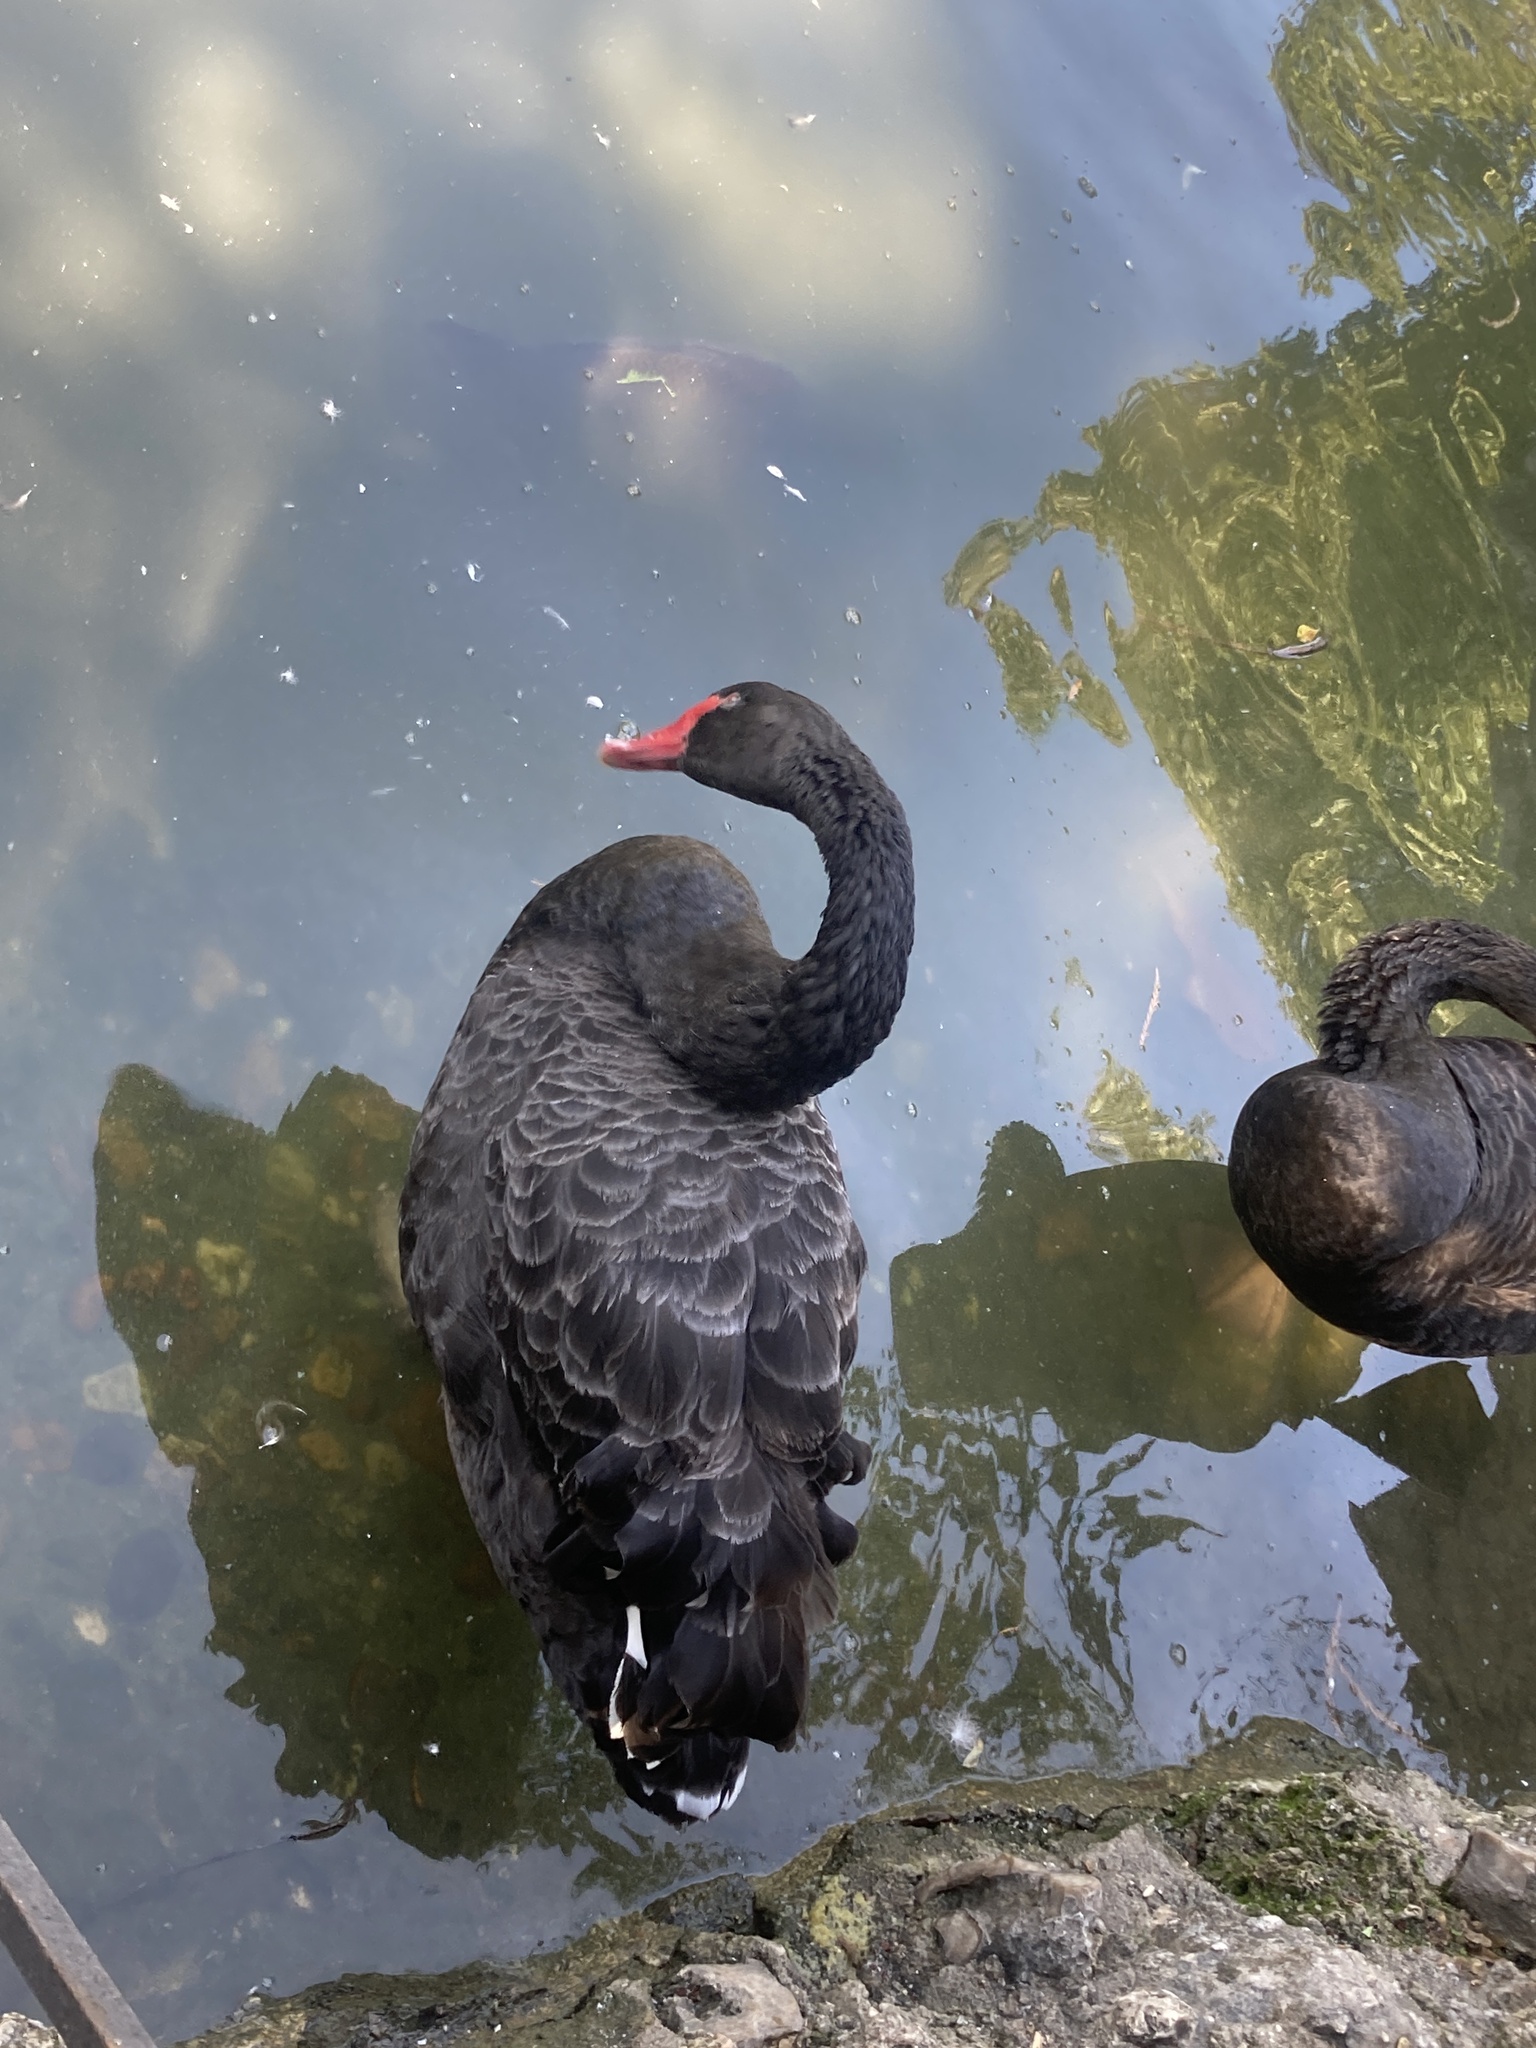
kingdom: Animalia
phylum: Chordata
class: Aves
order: Anseriformes
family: Anatidae
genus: Cygnus
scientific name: Cygnus atratus
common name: Black swan
